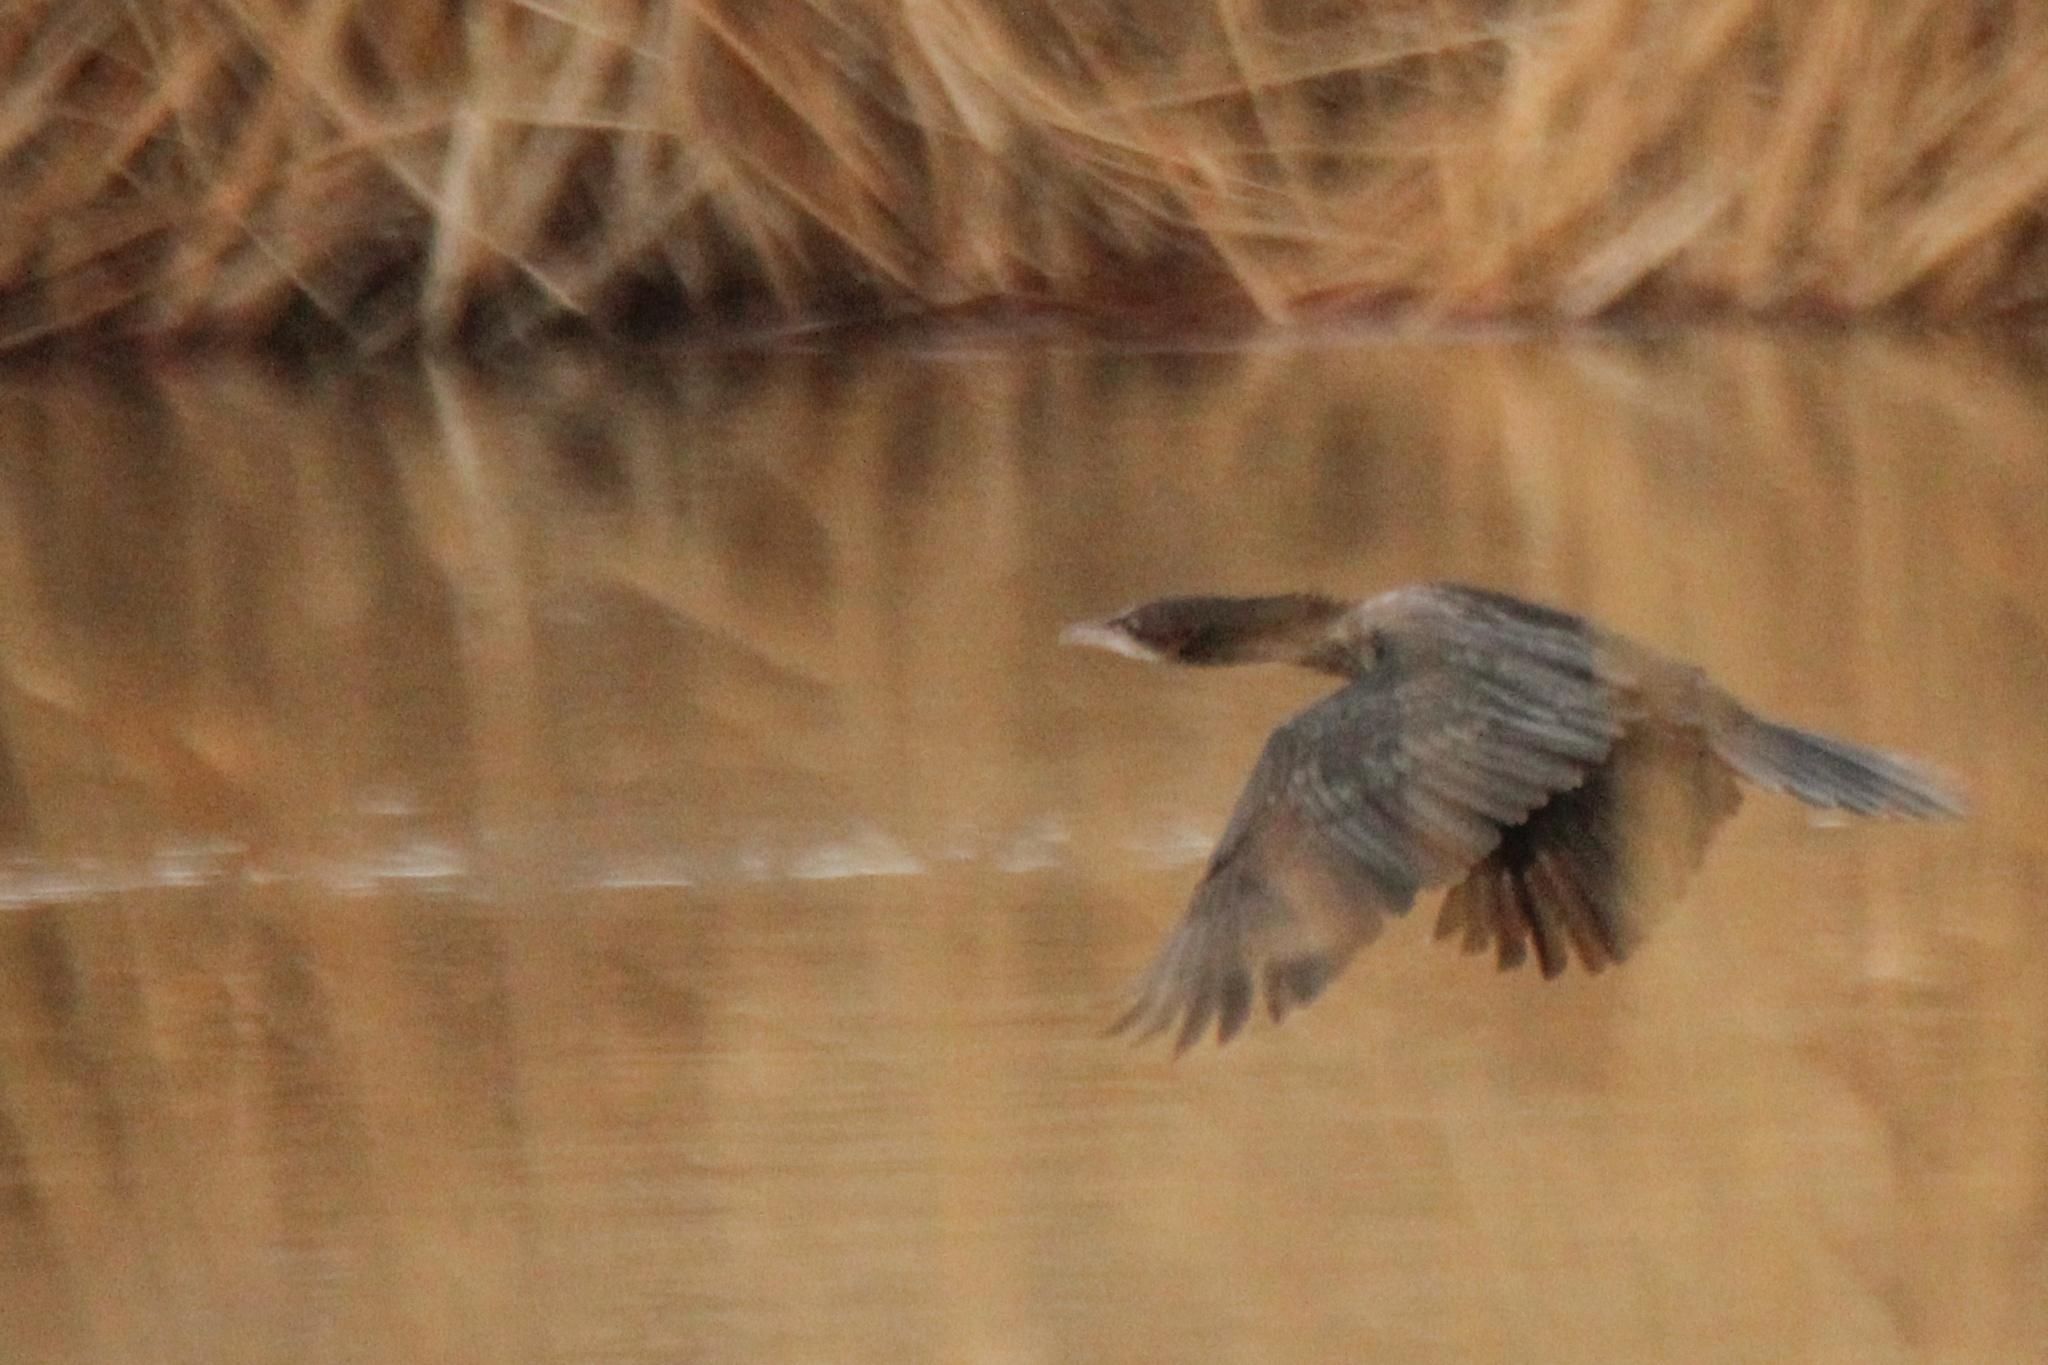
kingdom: Animalia
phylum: Chordata
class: Aves
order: Suliformes
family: Phalacrocoracidae
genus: Microcarbo
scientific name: Microcarbo pygmaeus
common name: Pygmy cormorant
